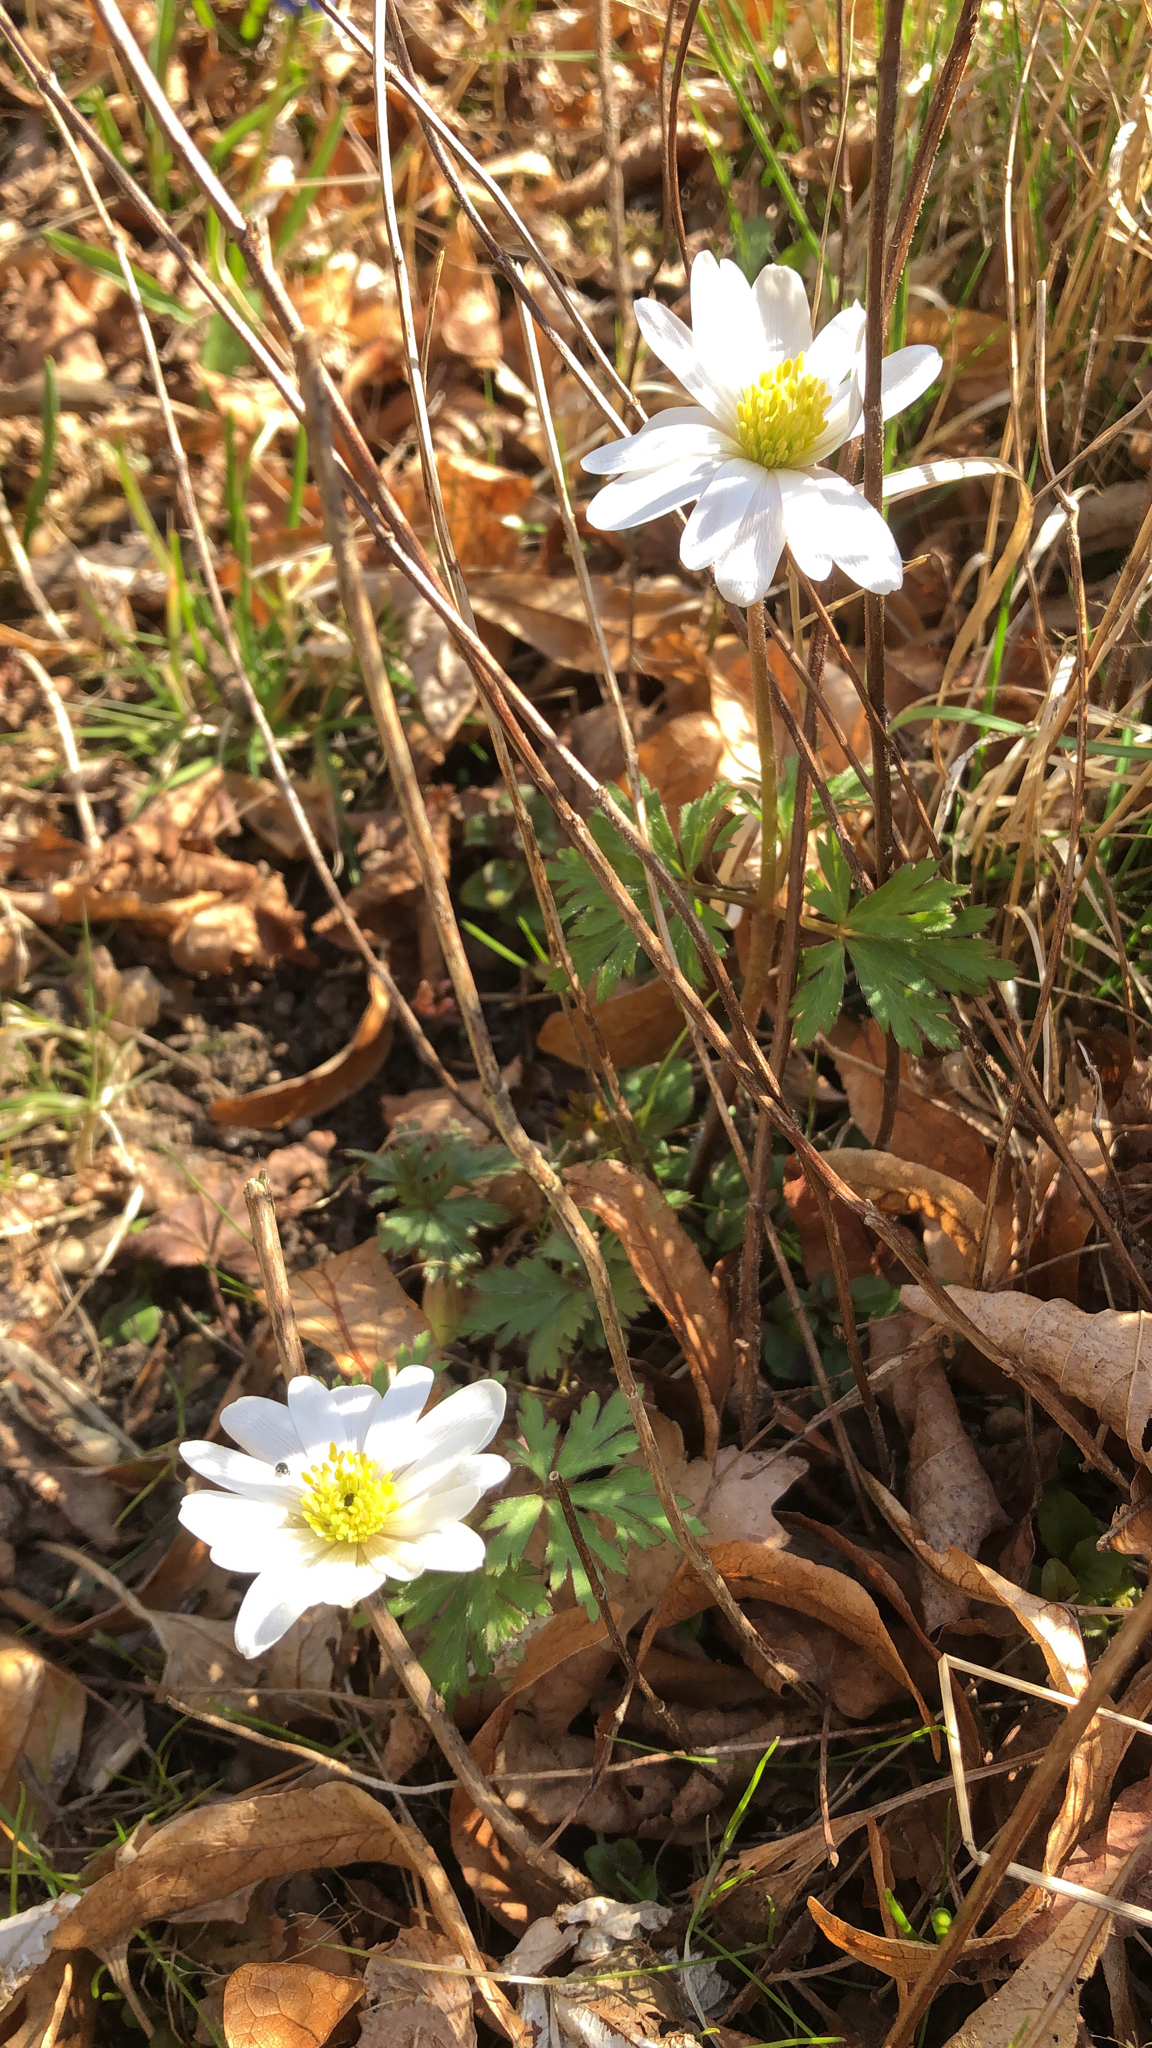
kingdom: Plantae
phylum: Tracheophyta
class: Magnoliopsida
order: Ranunculales
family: Ranunculaceae
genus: Anemone
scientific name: Anemone apennina
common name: Blue anemone
